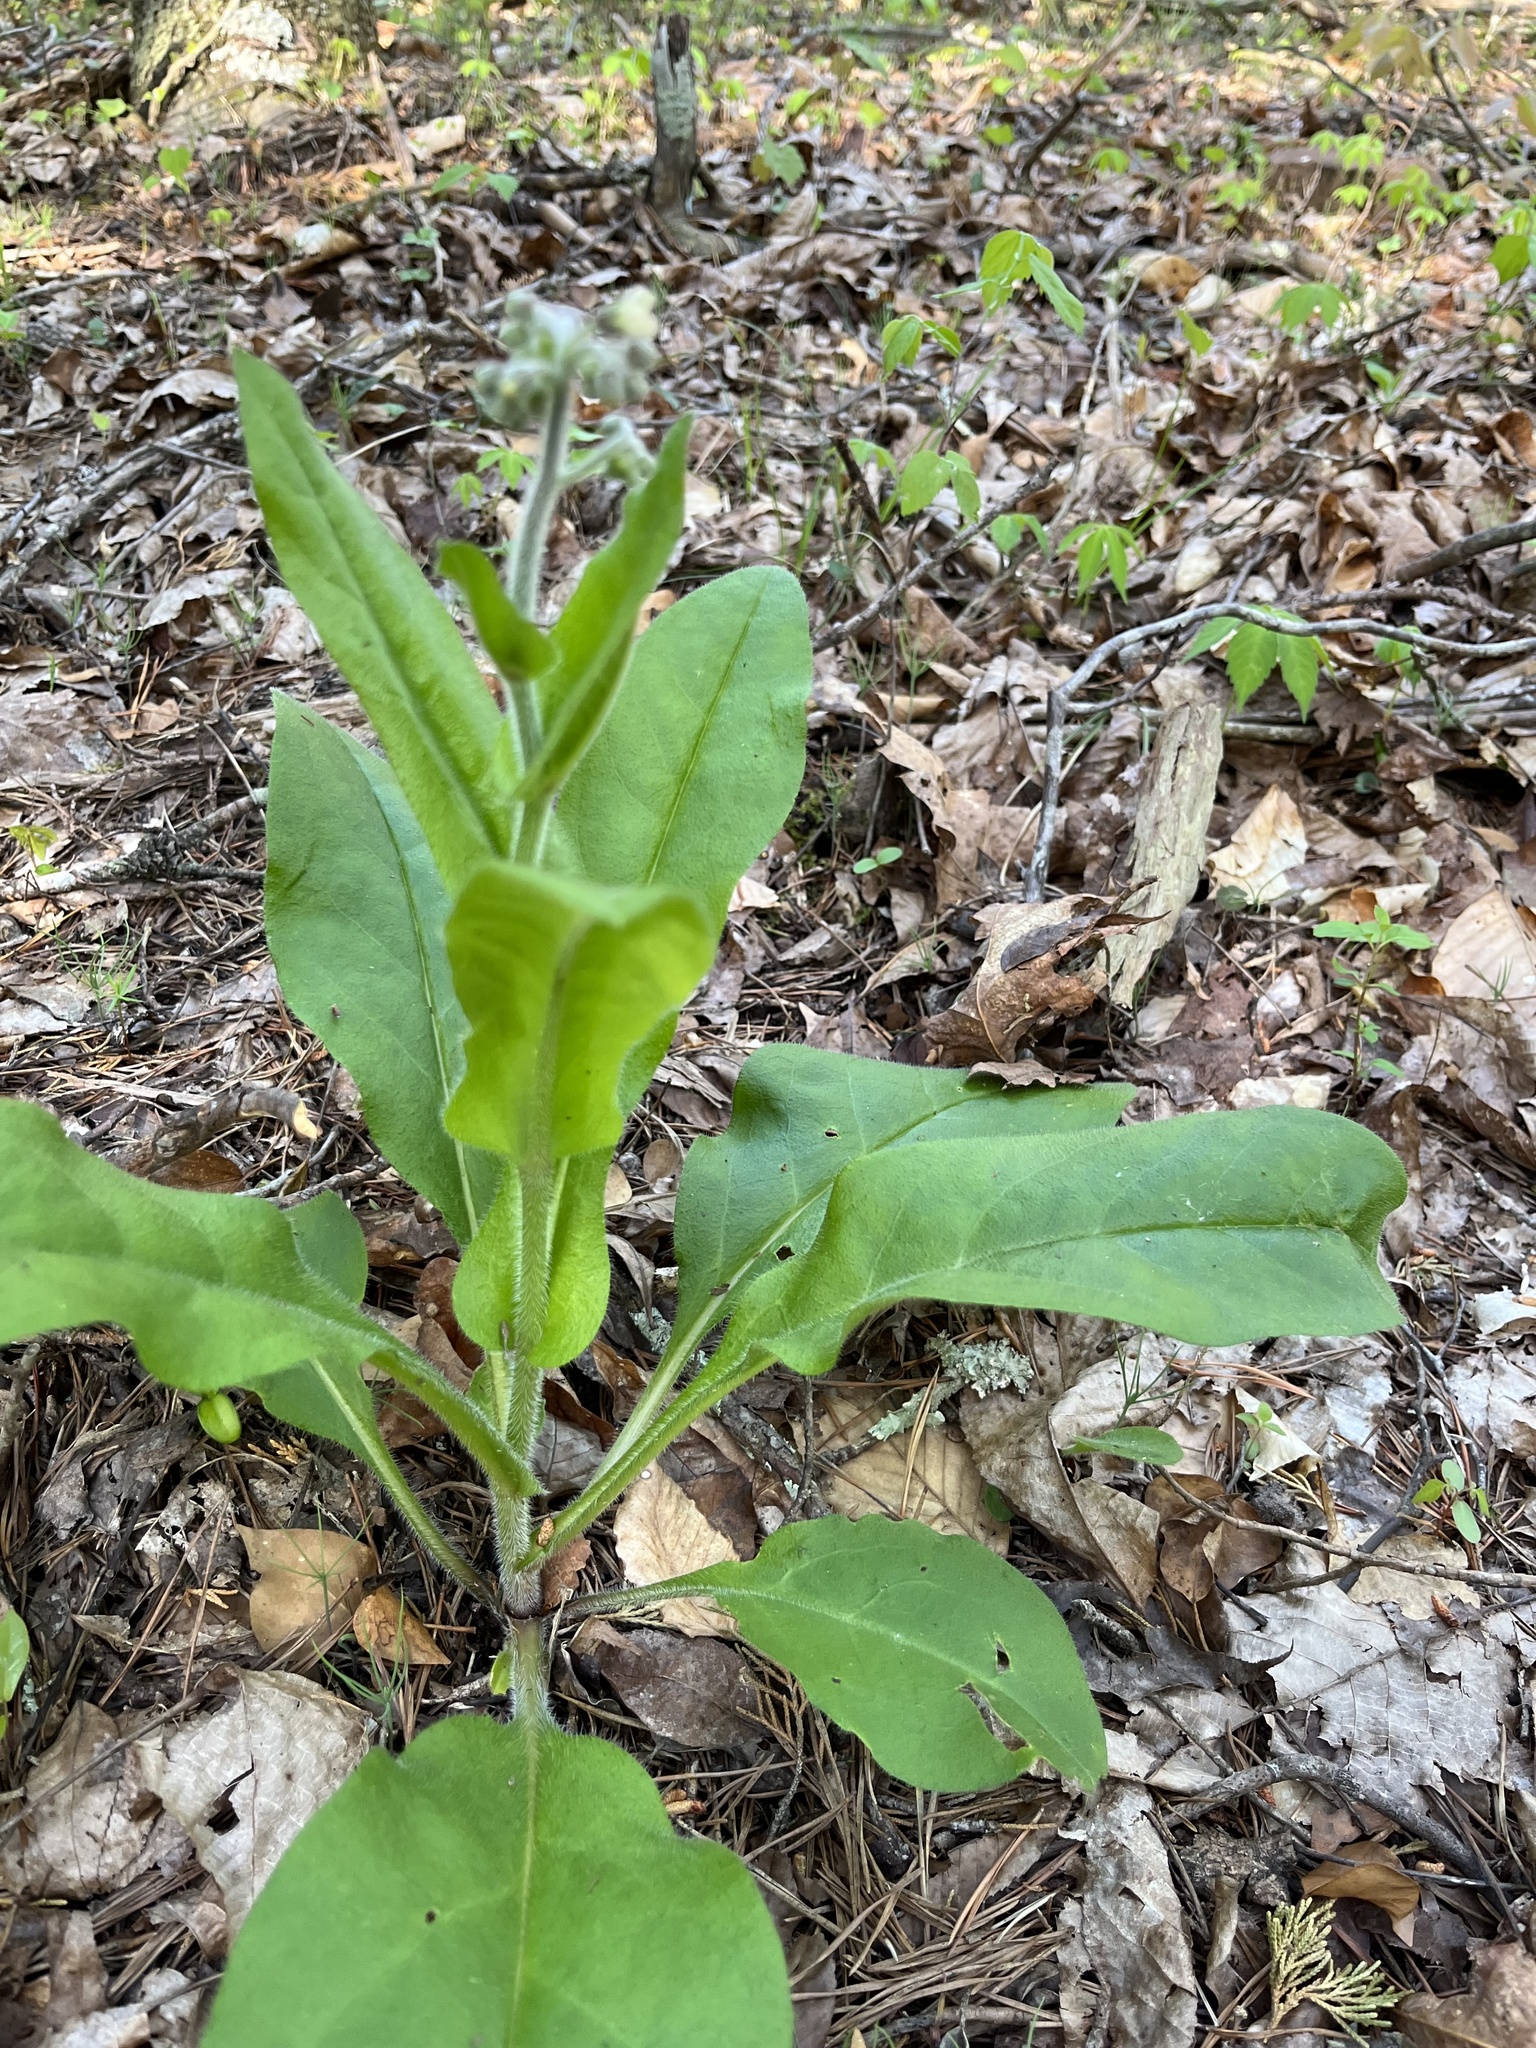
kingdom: Plantae
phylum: Tracheophyta
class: Magnoliopsida
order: Boraginales
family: Boraginaceae
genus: Andersonglossum
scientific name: Andersonglossum virginianum
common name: Wild comfrey
